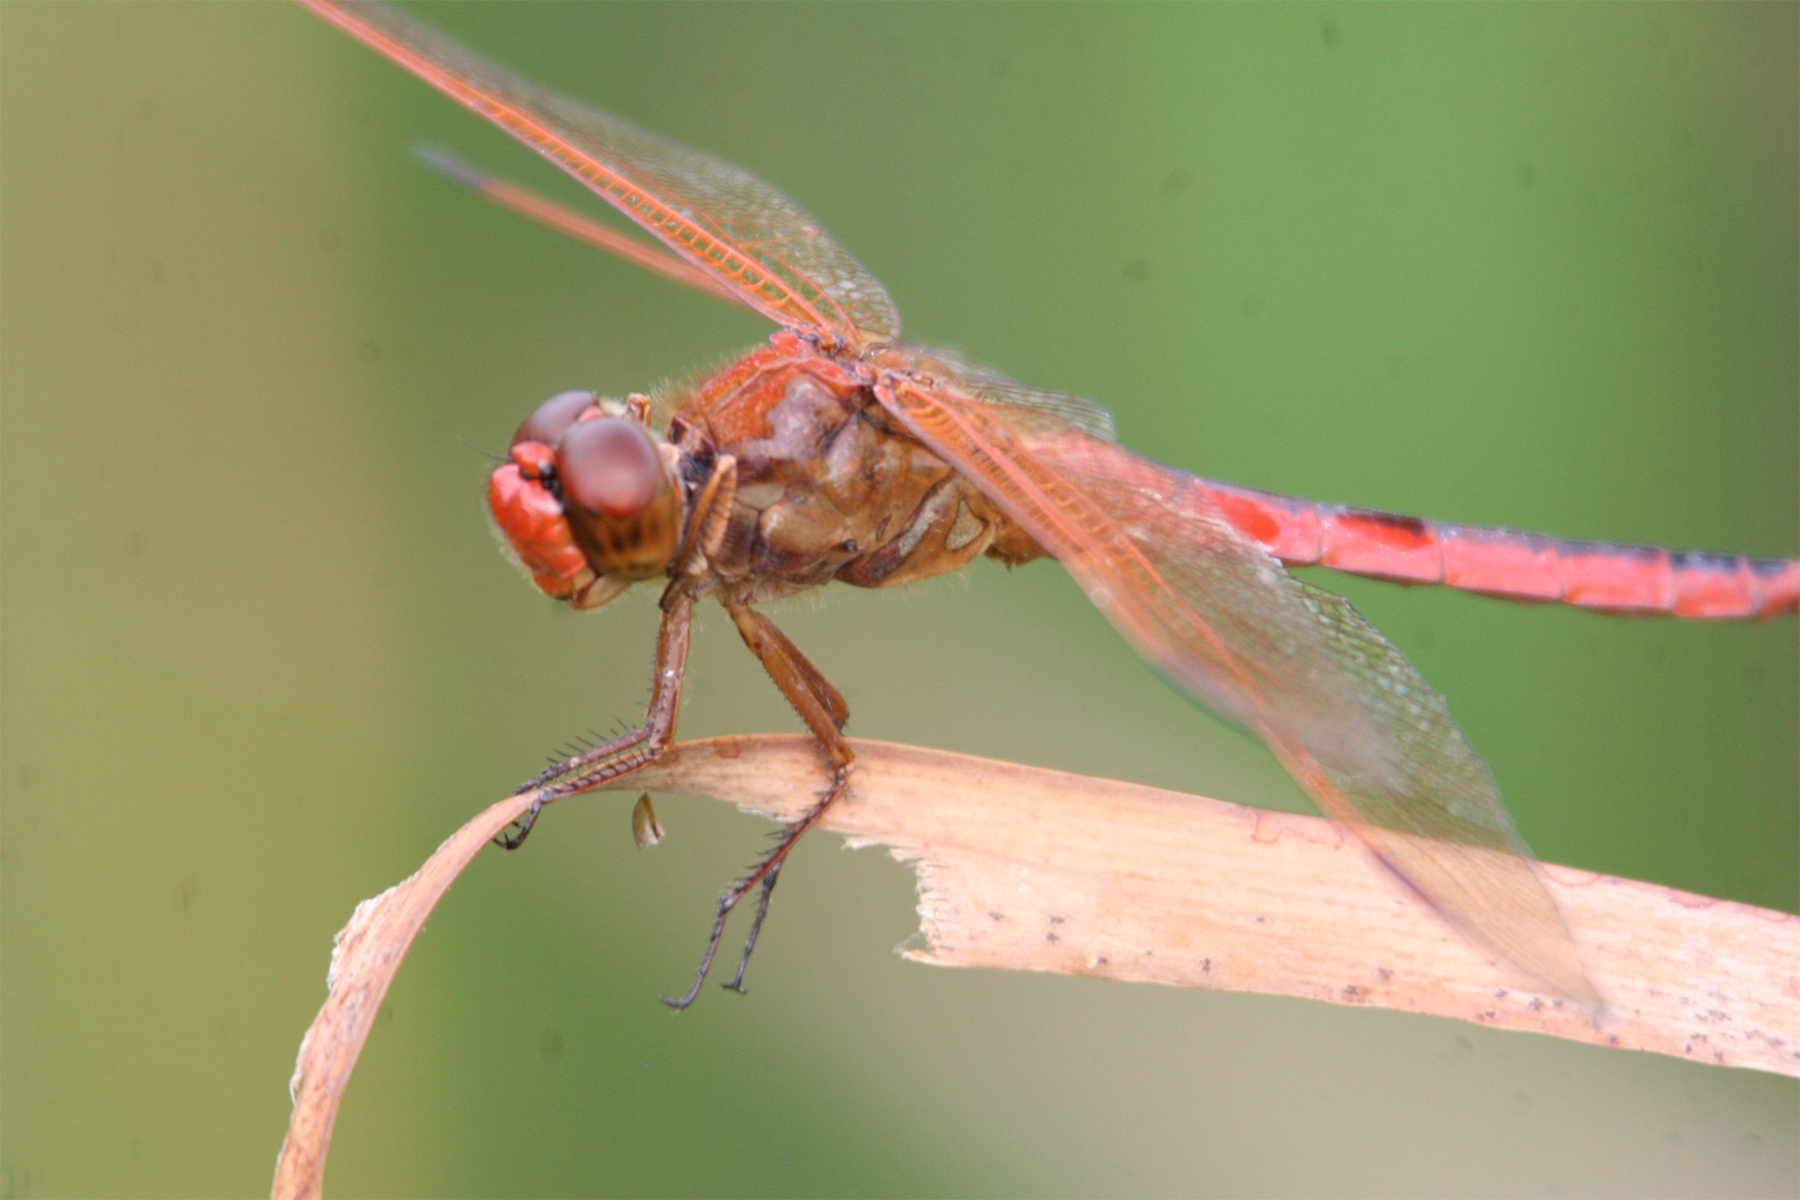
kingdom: Animalia
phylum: Arthropoda
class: Insecta
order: Odonata
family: Libellulidae
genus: Libellula
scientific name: Libellula needhami
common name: Needham's skimmer
